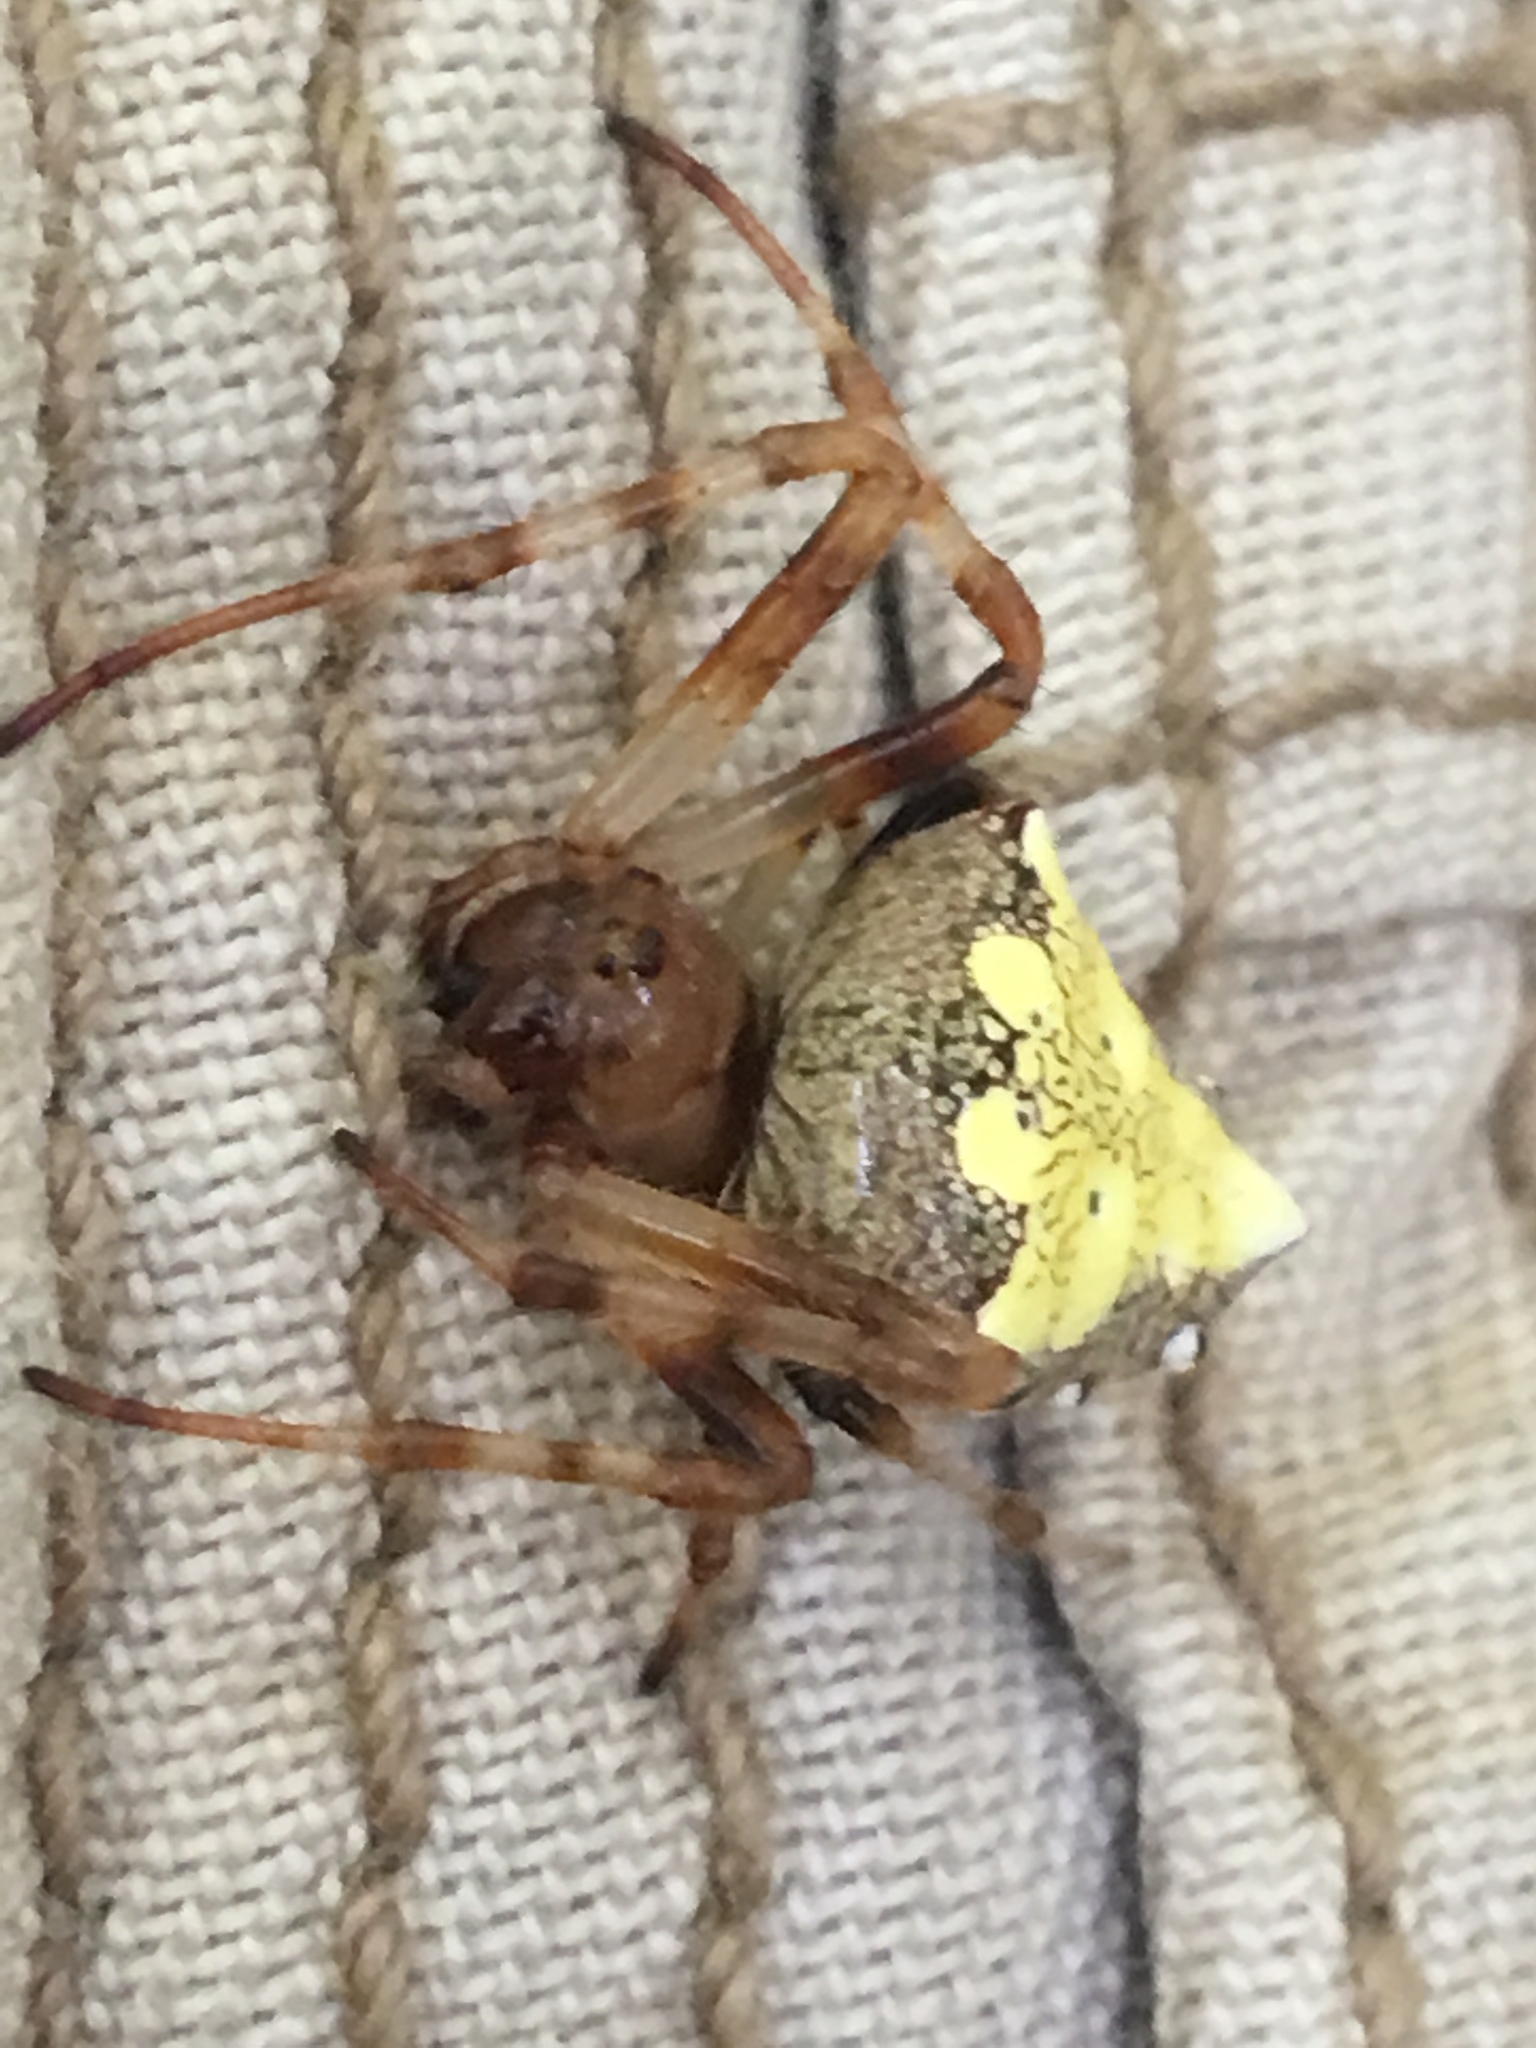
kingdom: Animalia
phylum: Arthropoda
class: Arachnida
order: Araneae
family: Araneidae
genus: Verrucosa
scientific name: Verrucosa arenata
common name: Orb weavers
